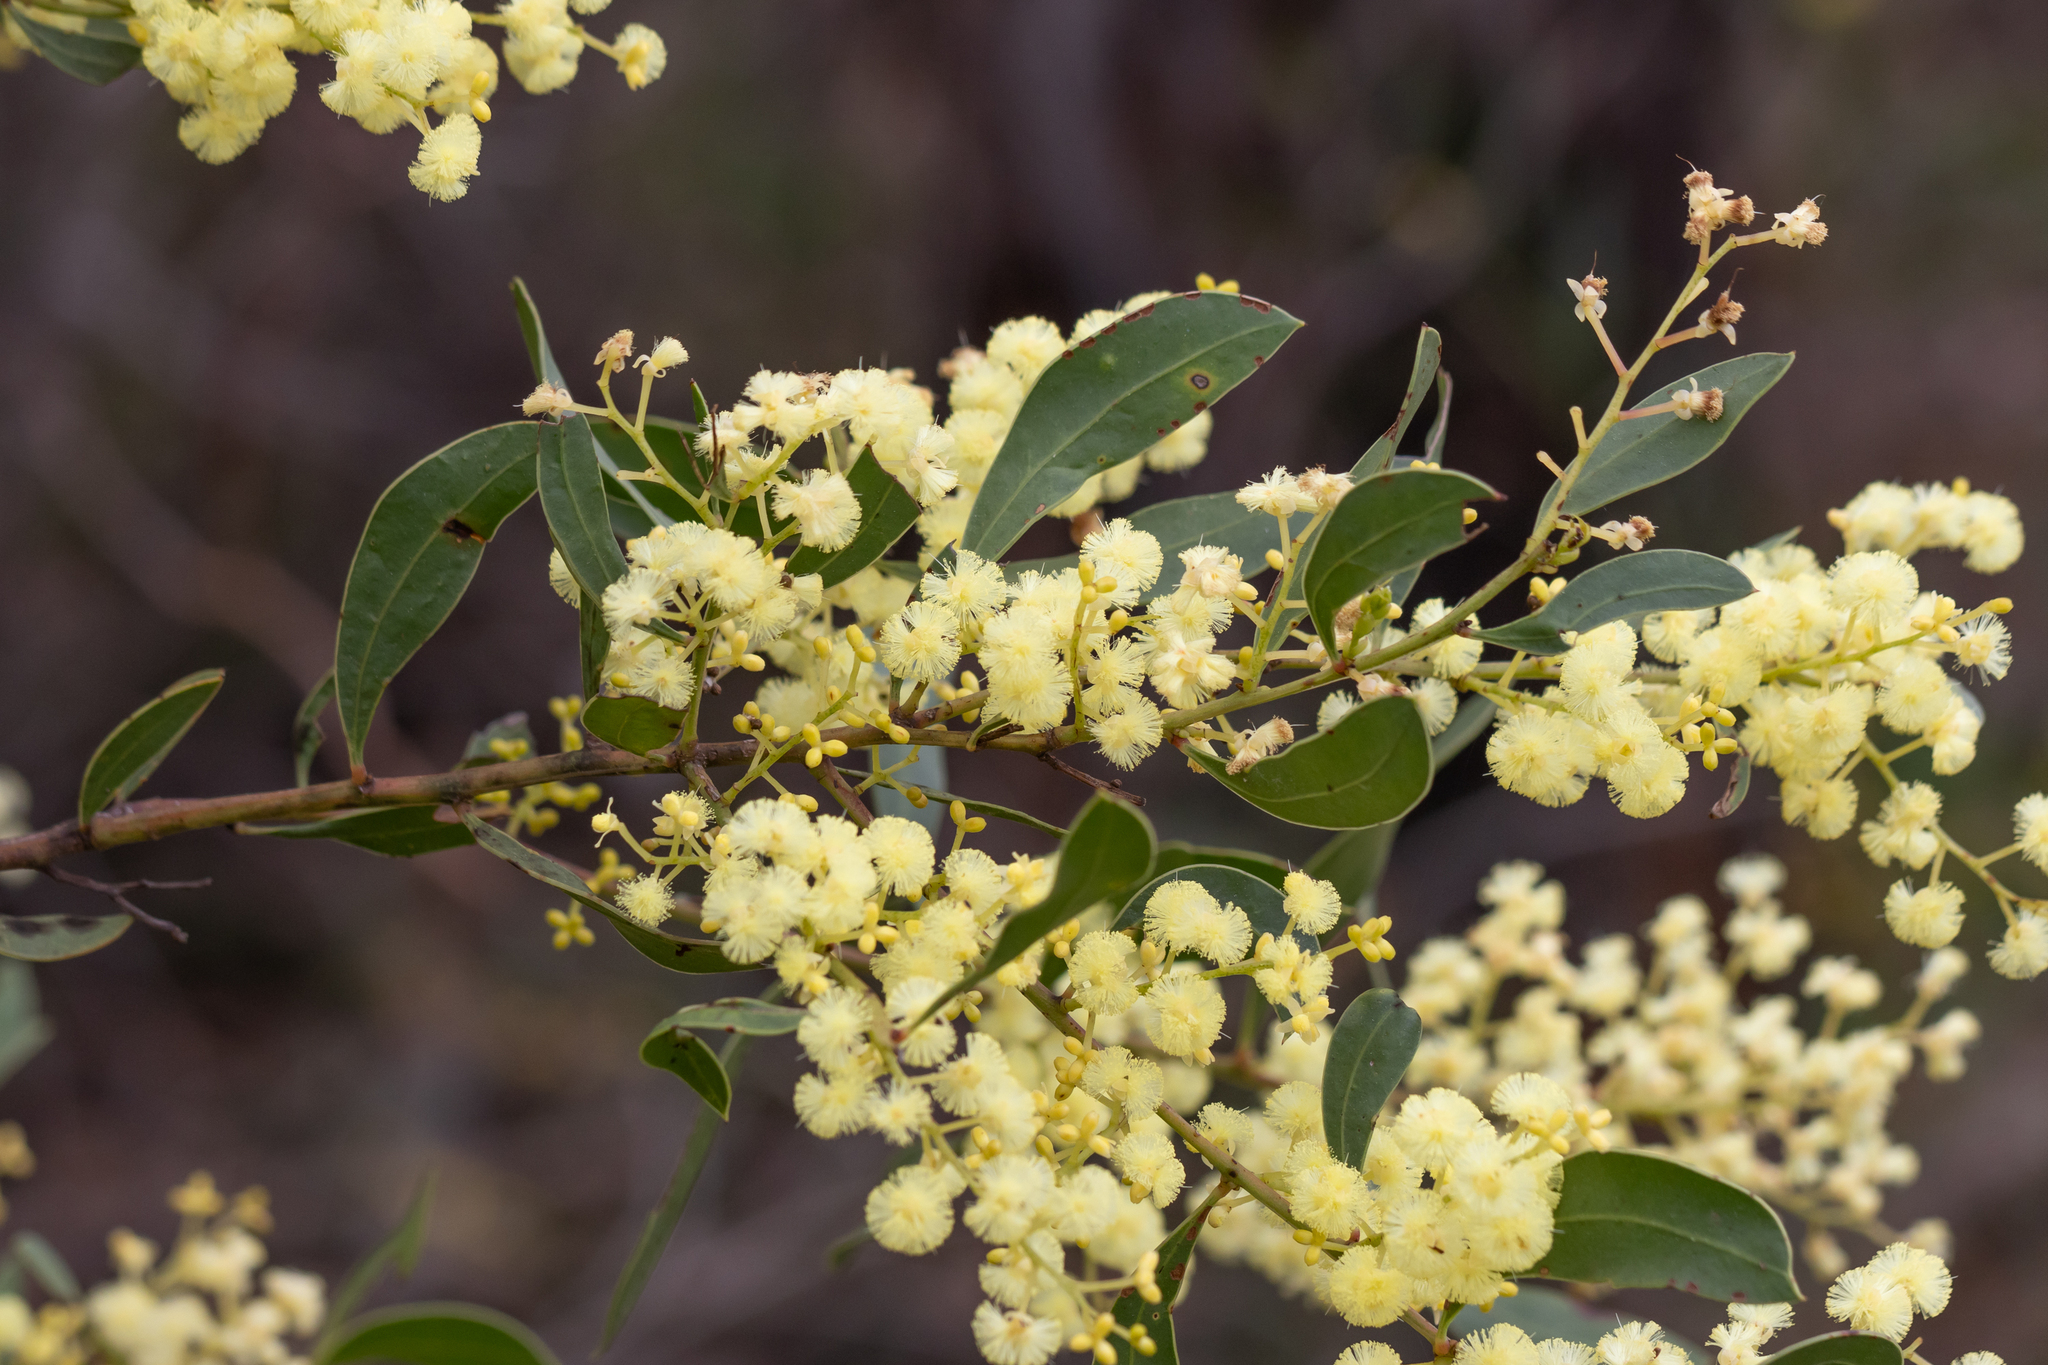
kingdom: Plantae
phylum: Tracheophyta
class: Magnoliopsida
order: Fabales
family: Fabaceae
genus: Acacia
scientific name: Acacia myrtifolia
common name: Myrtle wattle
